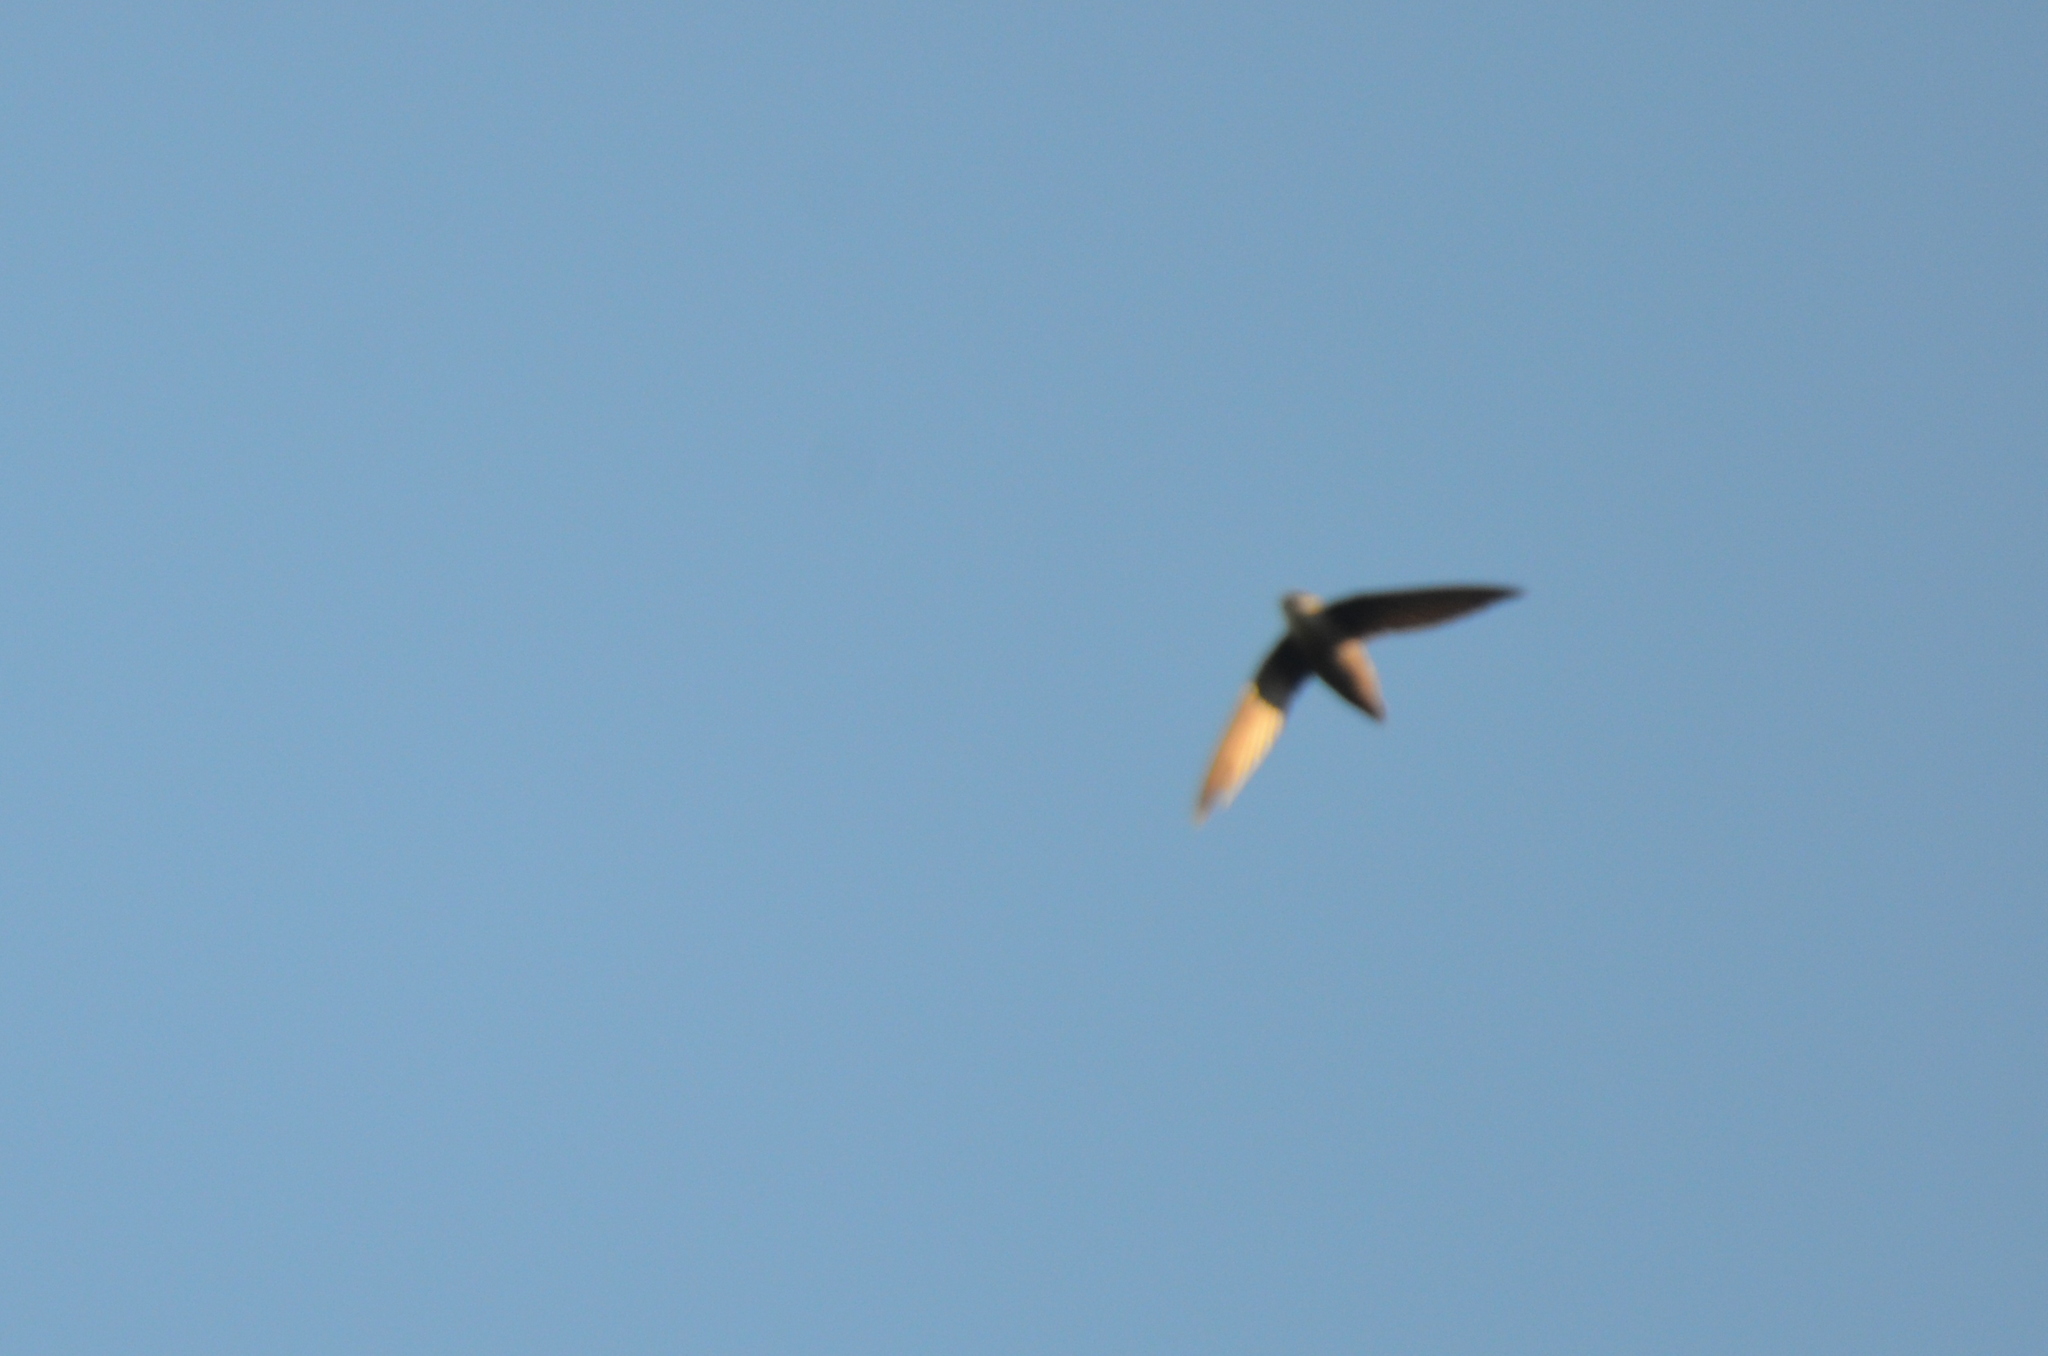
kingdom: Animalia
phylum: Chordata
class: Aves
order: Apodiformes
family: Apodidae
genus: Chaetura
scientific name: Chaetura pelagica
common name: Chimney swift
